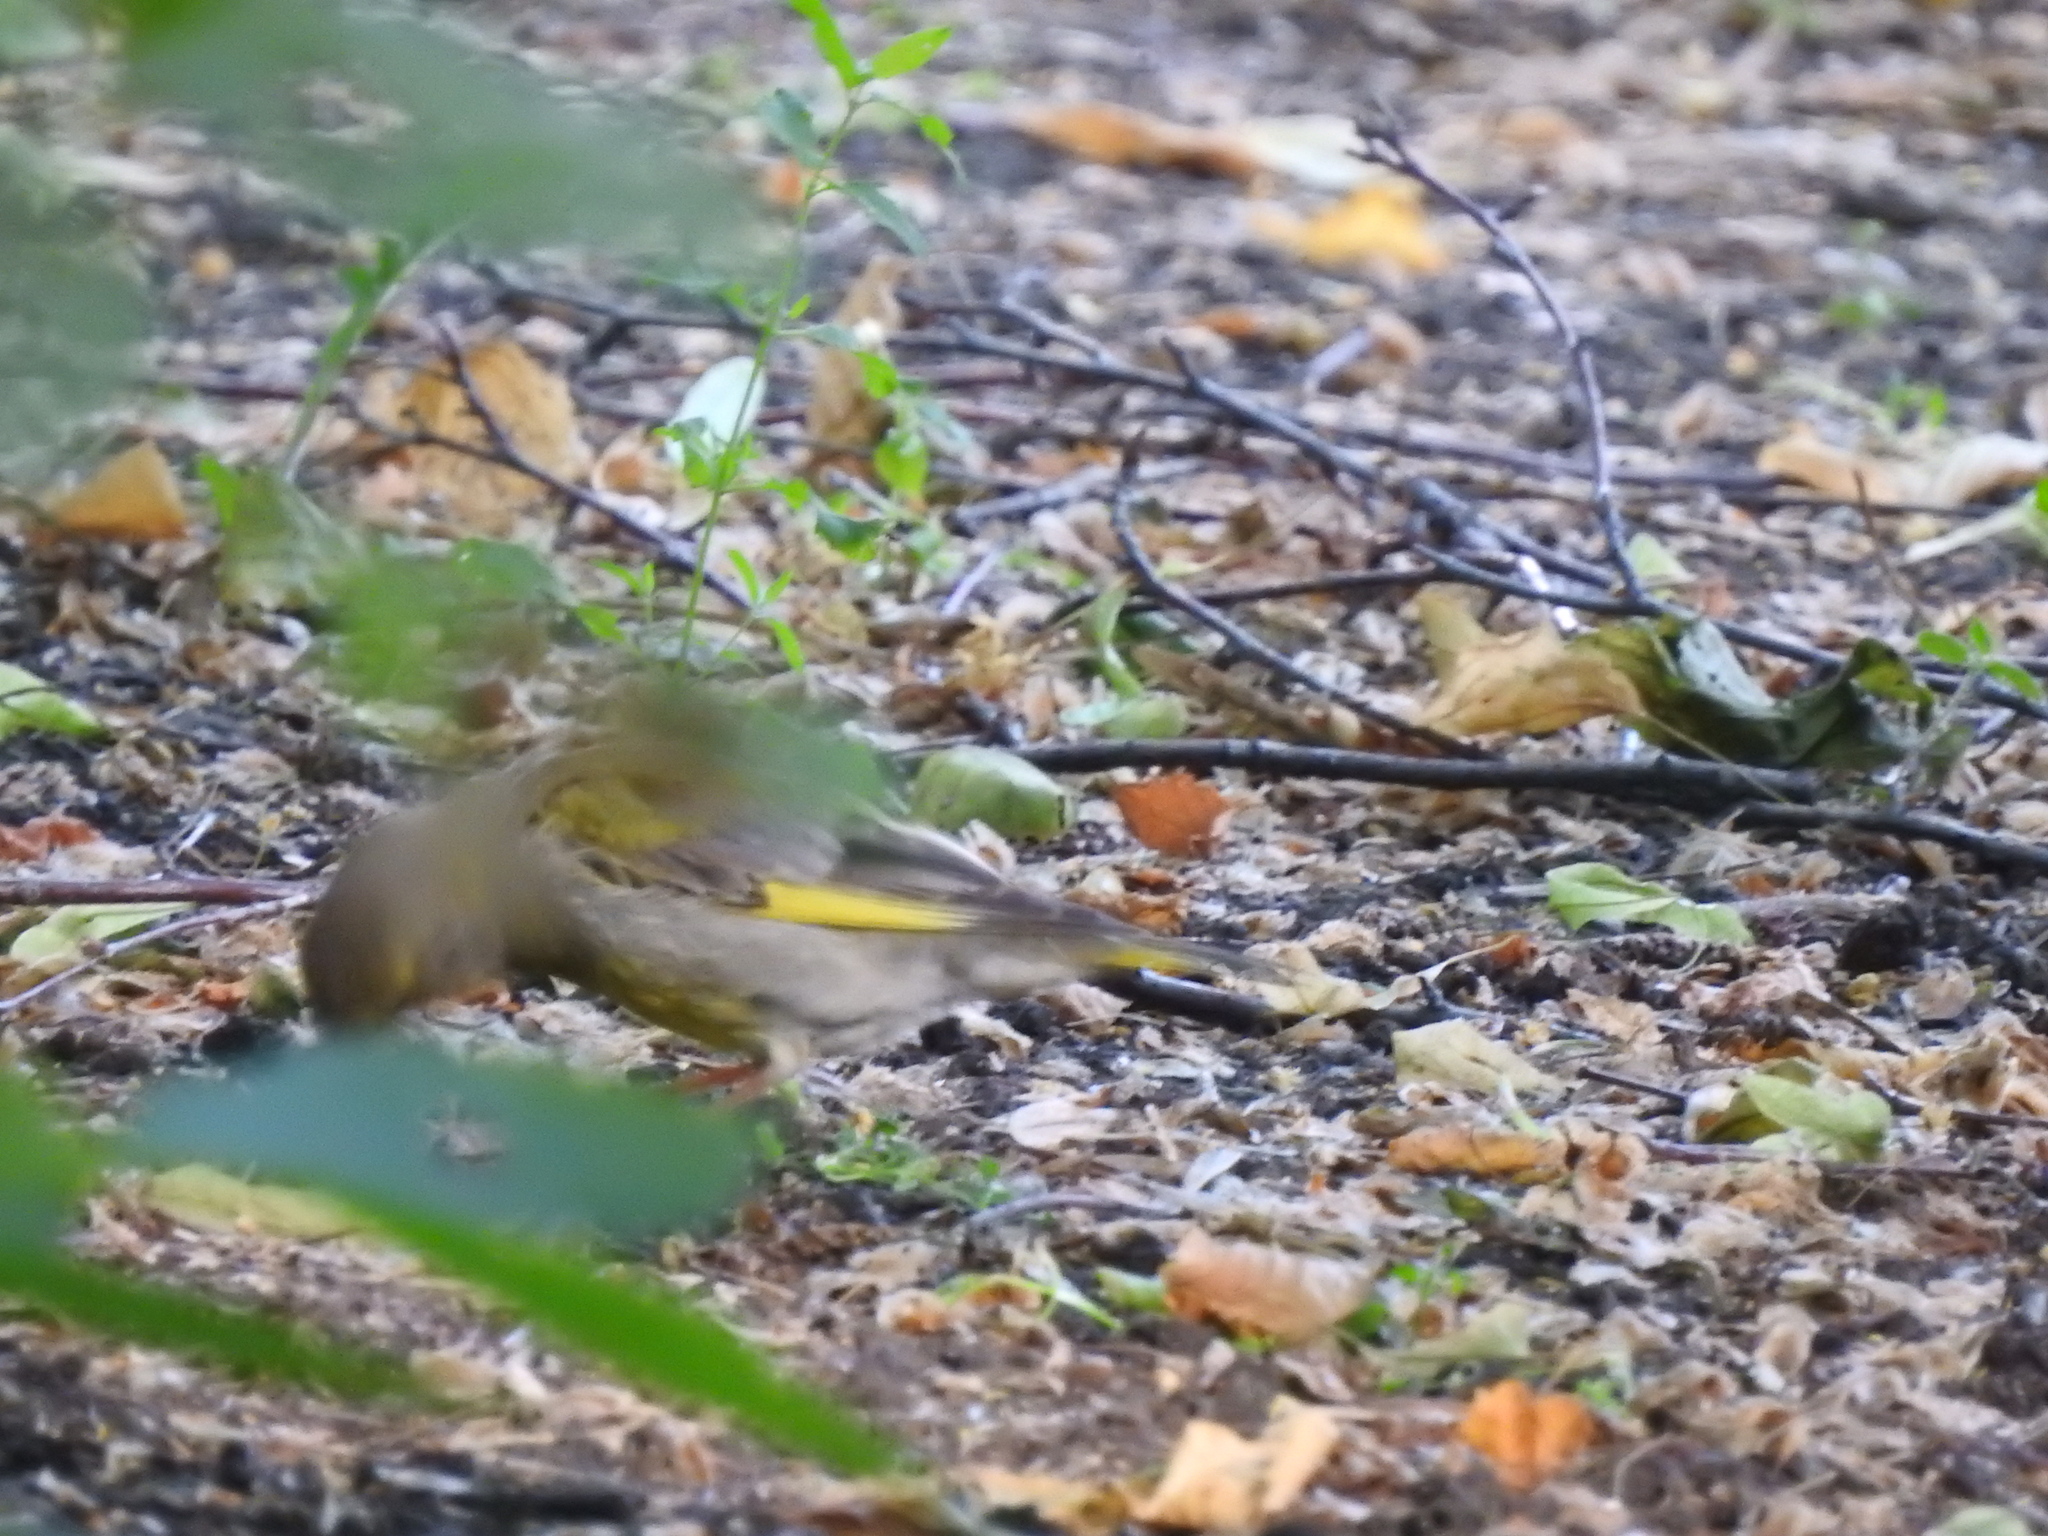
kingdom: Plantae
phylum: Tracheophyta
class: Liliopsida
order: Poales
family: Poaceae
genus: Chloris
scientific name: Chloris chloris
